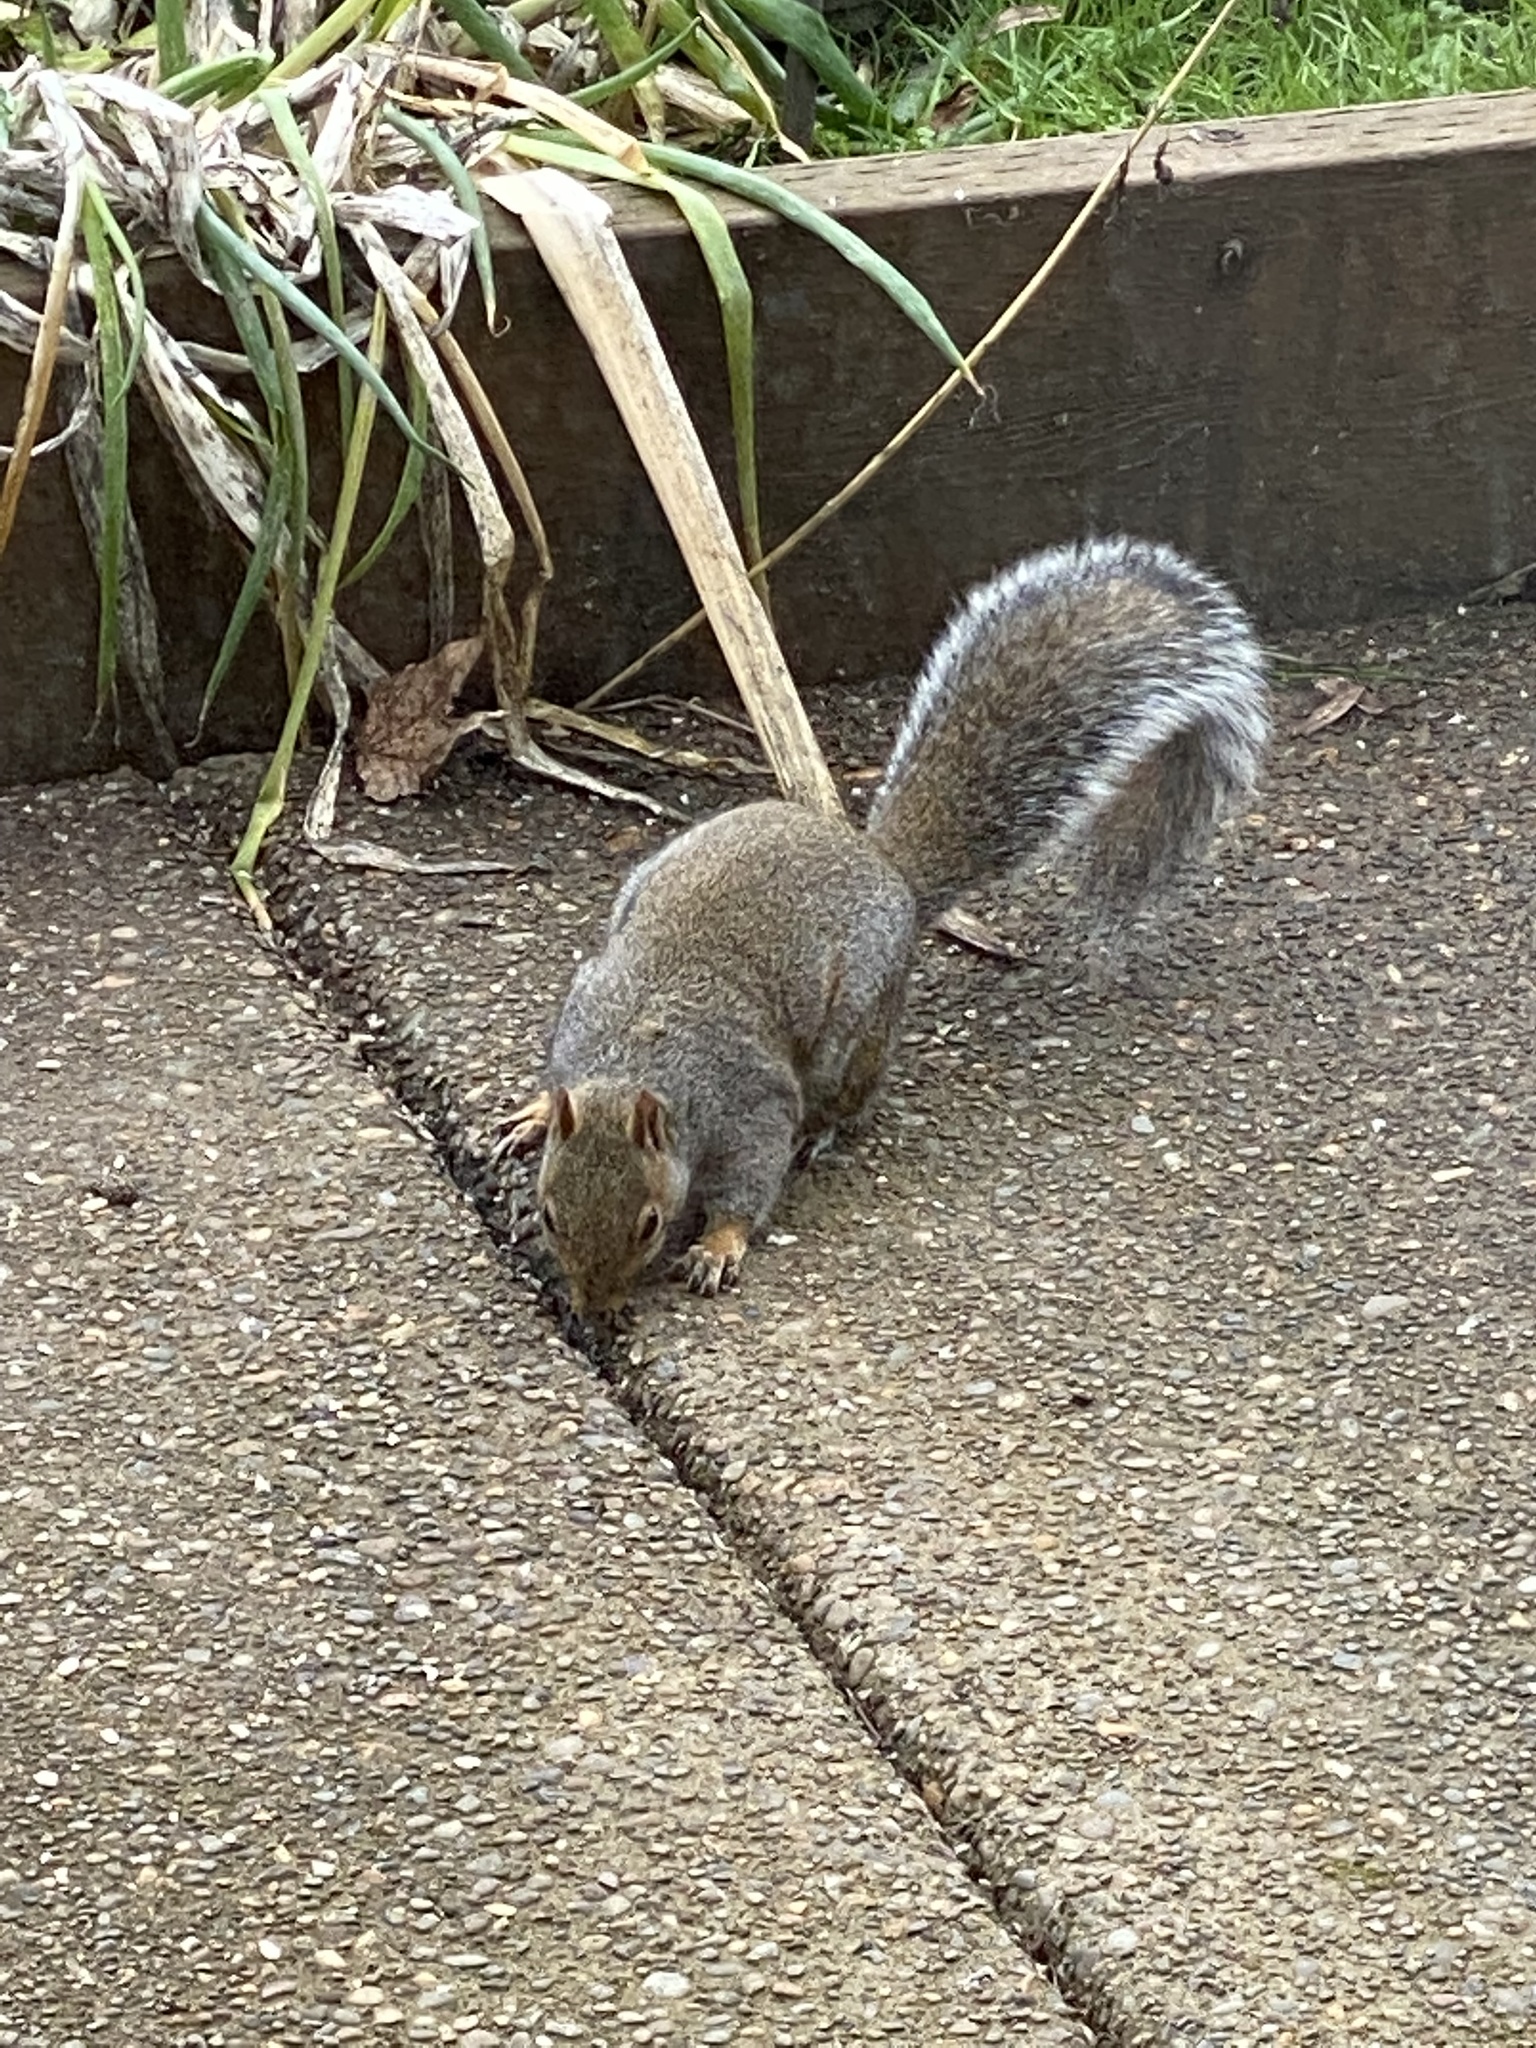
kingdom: Animalia
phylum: Chordata
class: Mammalia
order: Rodentia
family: Sciuridae
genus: Sciurus
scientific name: Sciurus carolinensis
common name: Eastern gray squirrel
